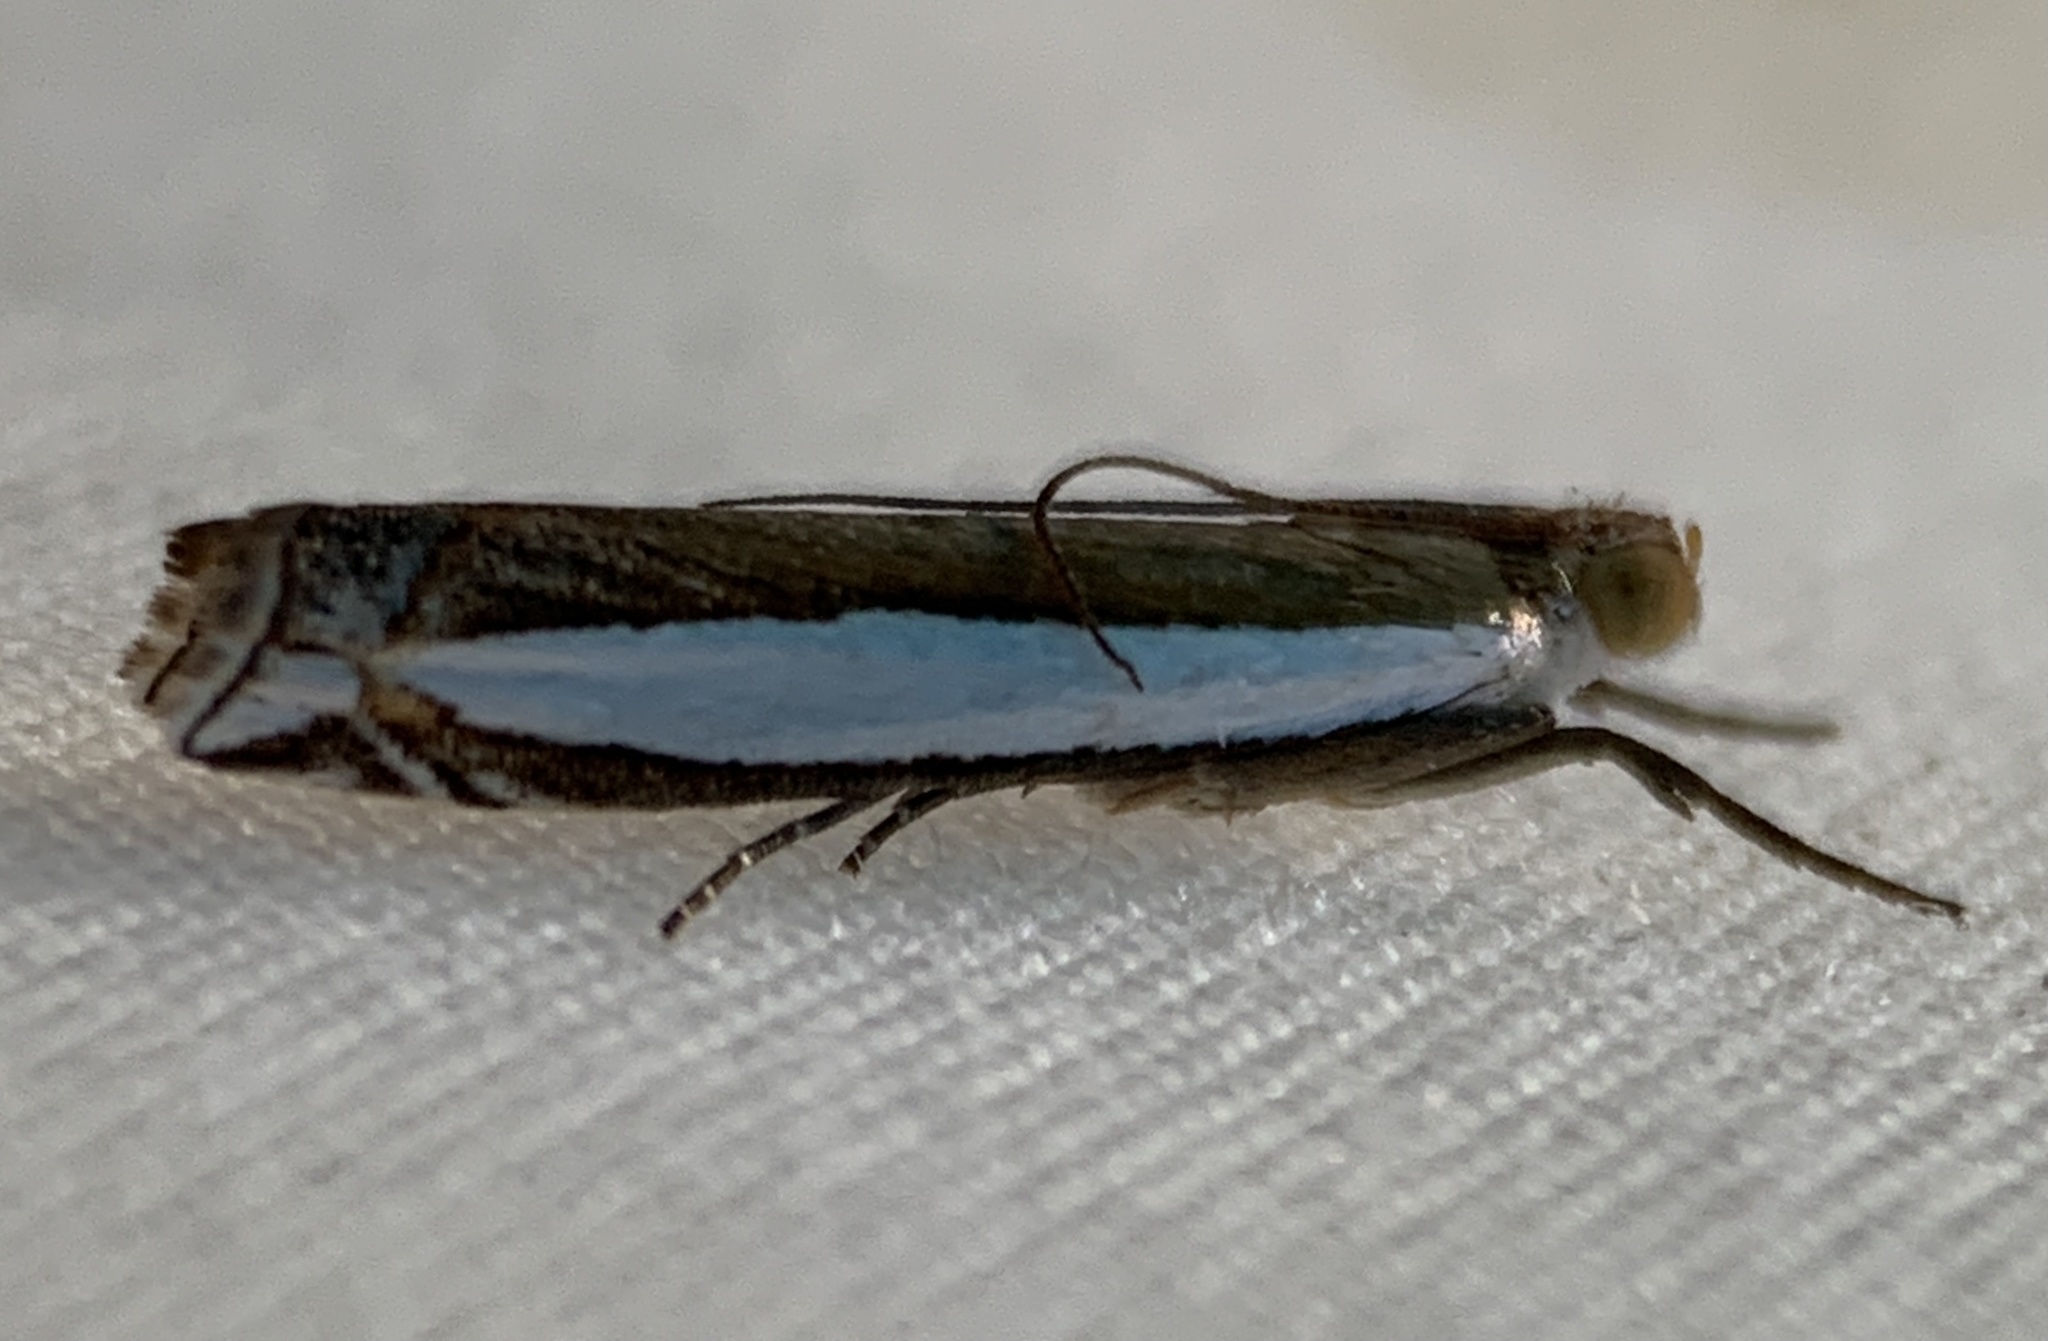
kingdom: Animalia
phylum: Arthropoda
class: Insecta
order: Lepidoptera
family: Crambidae
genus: Crambus
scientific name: Crambus quinquareatus
